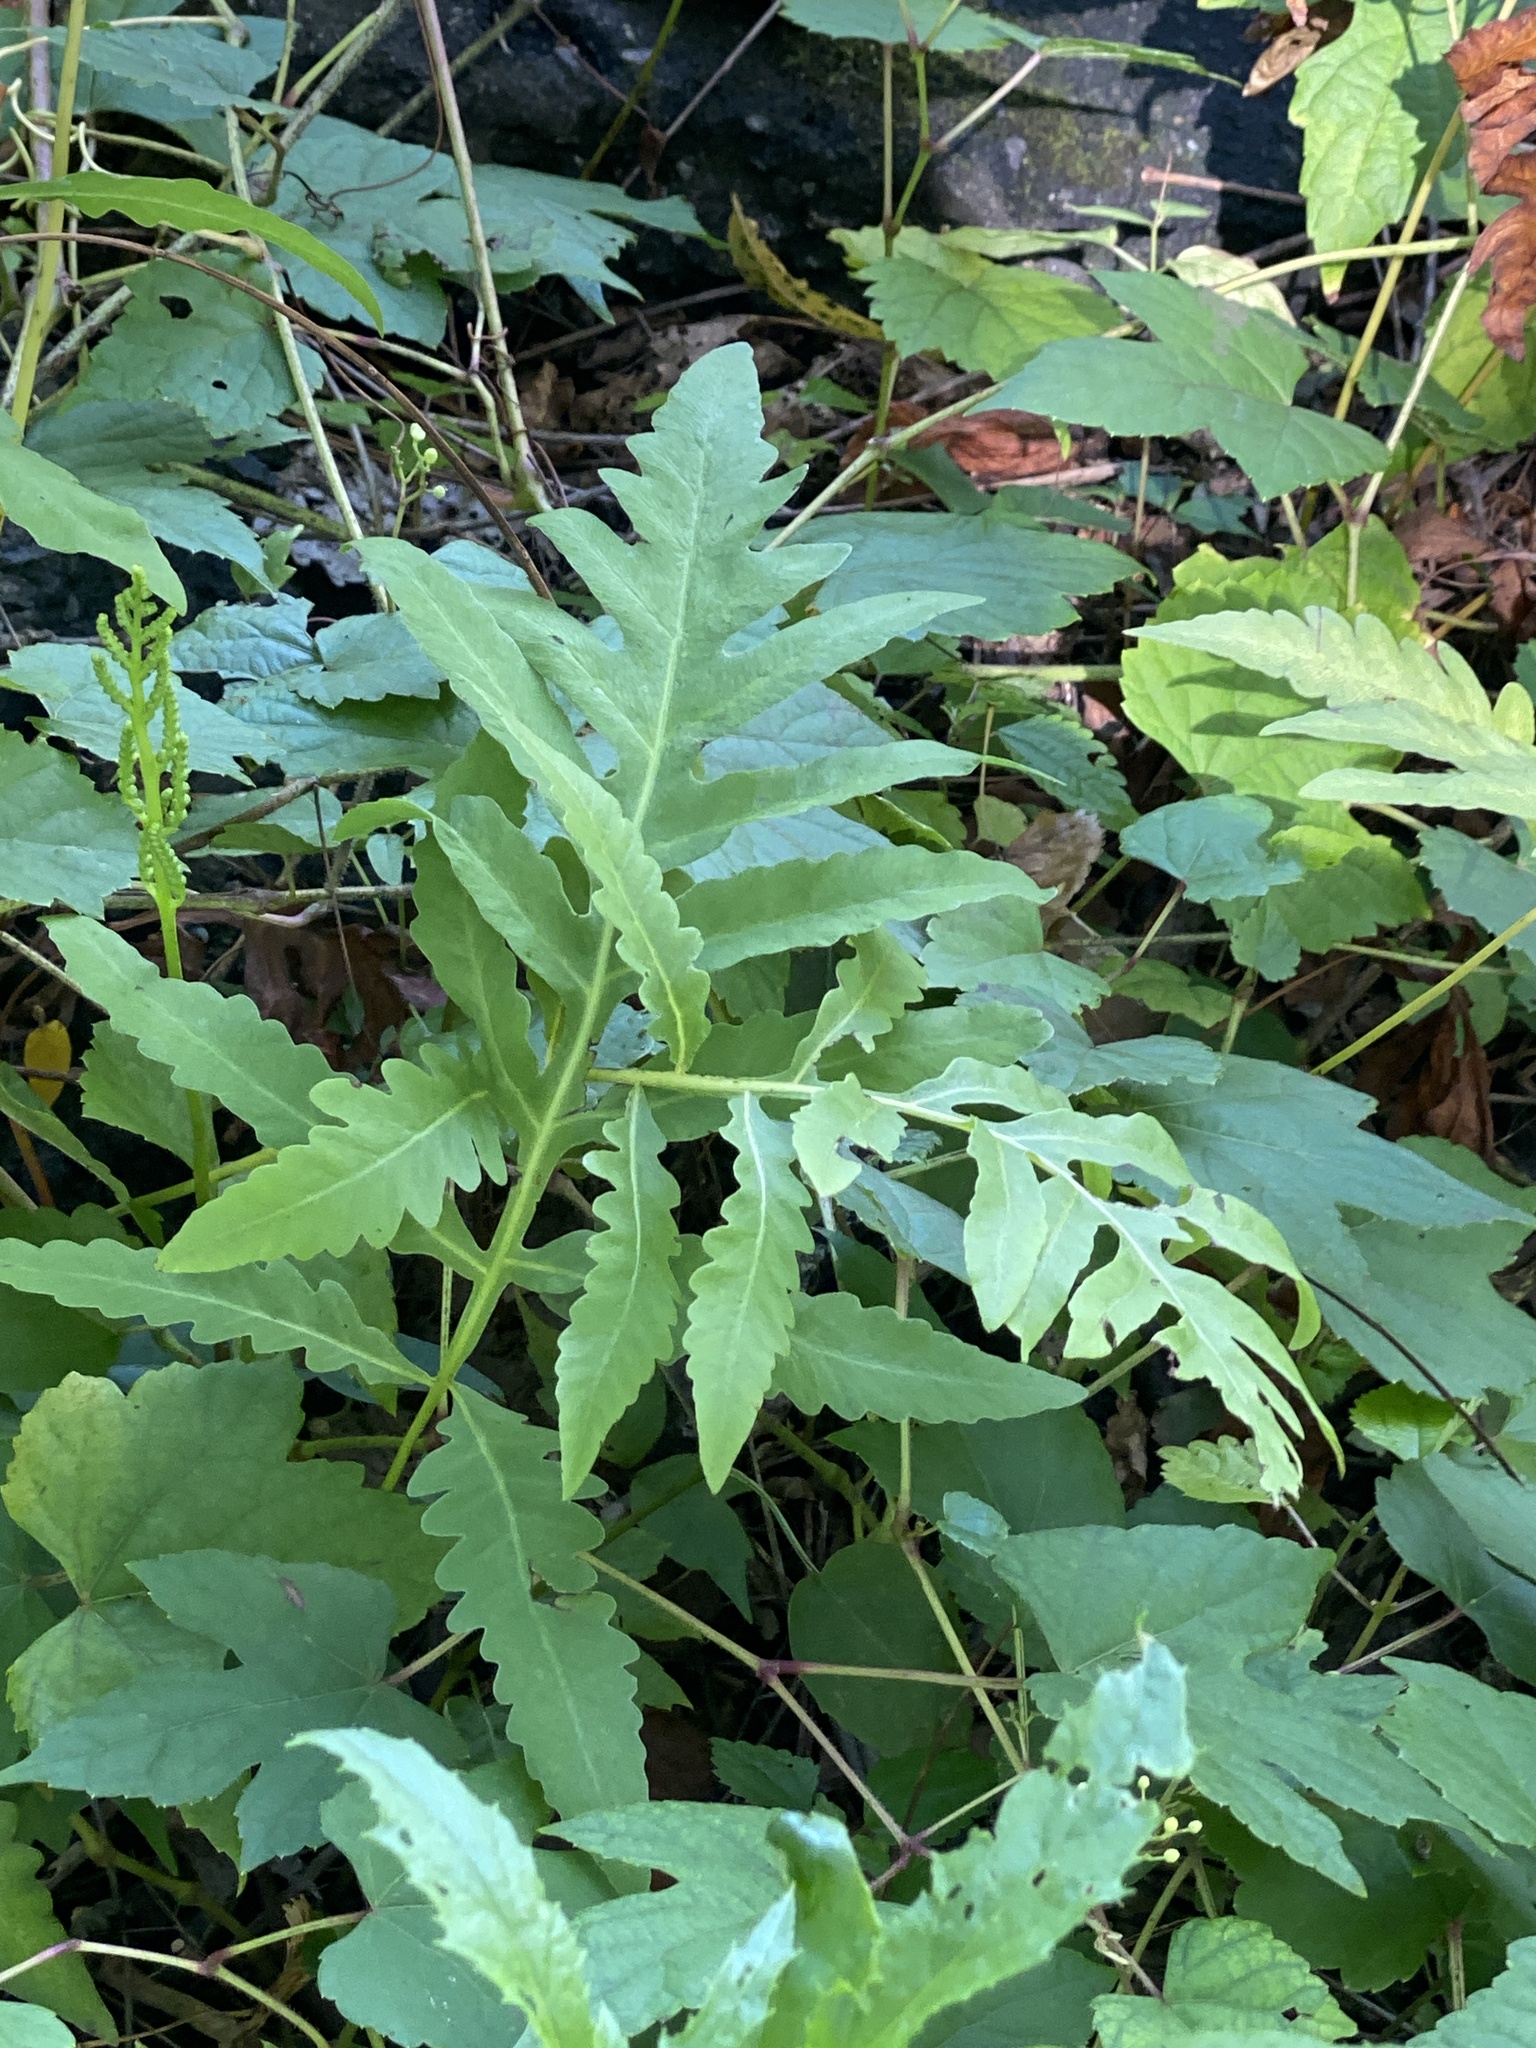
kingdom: Plantae
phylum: Tracheophyta
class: Polypodiopsida
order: Polypodiales
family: Onocleaceae
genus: Onoclea
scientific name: Onoclea sensibilis
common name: Sensitive fern
